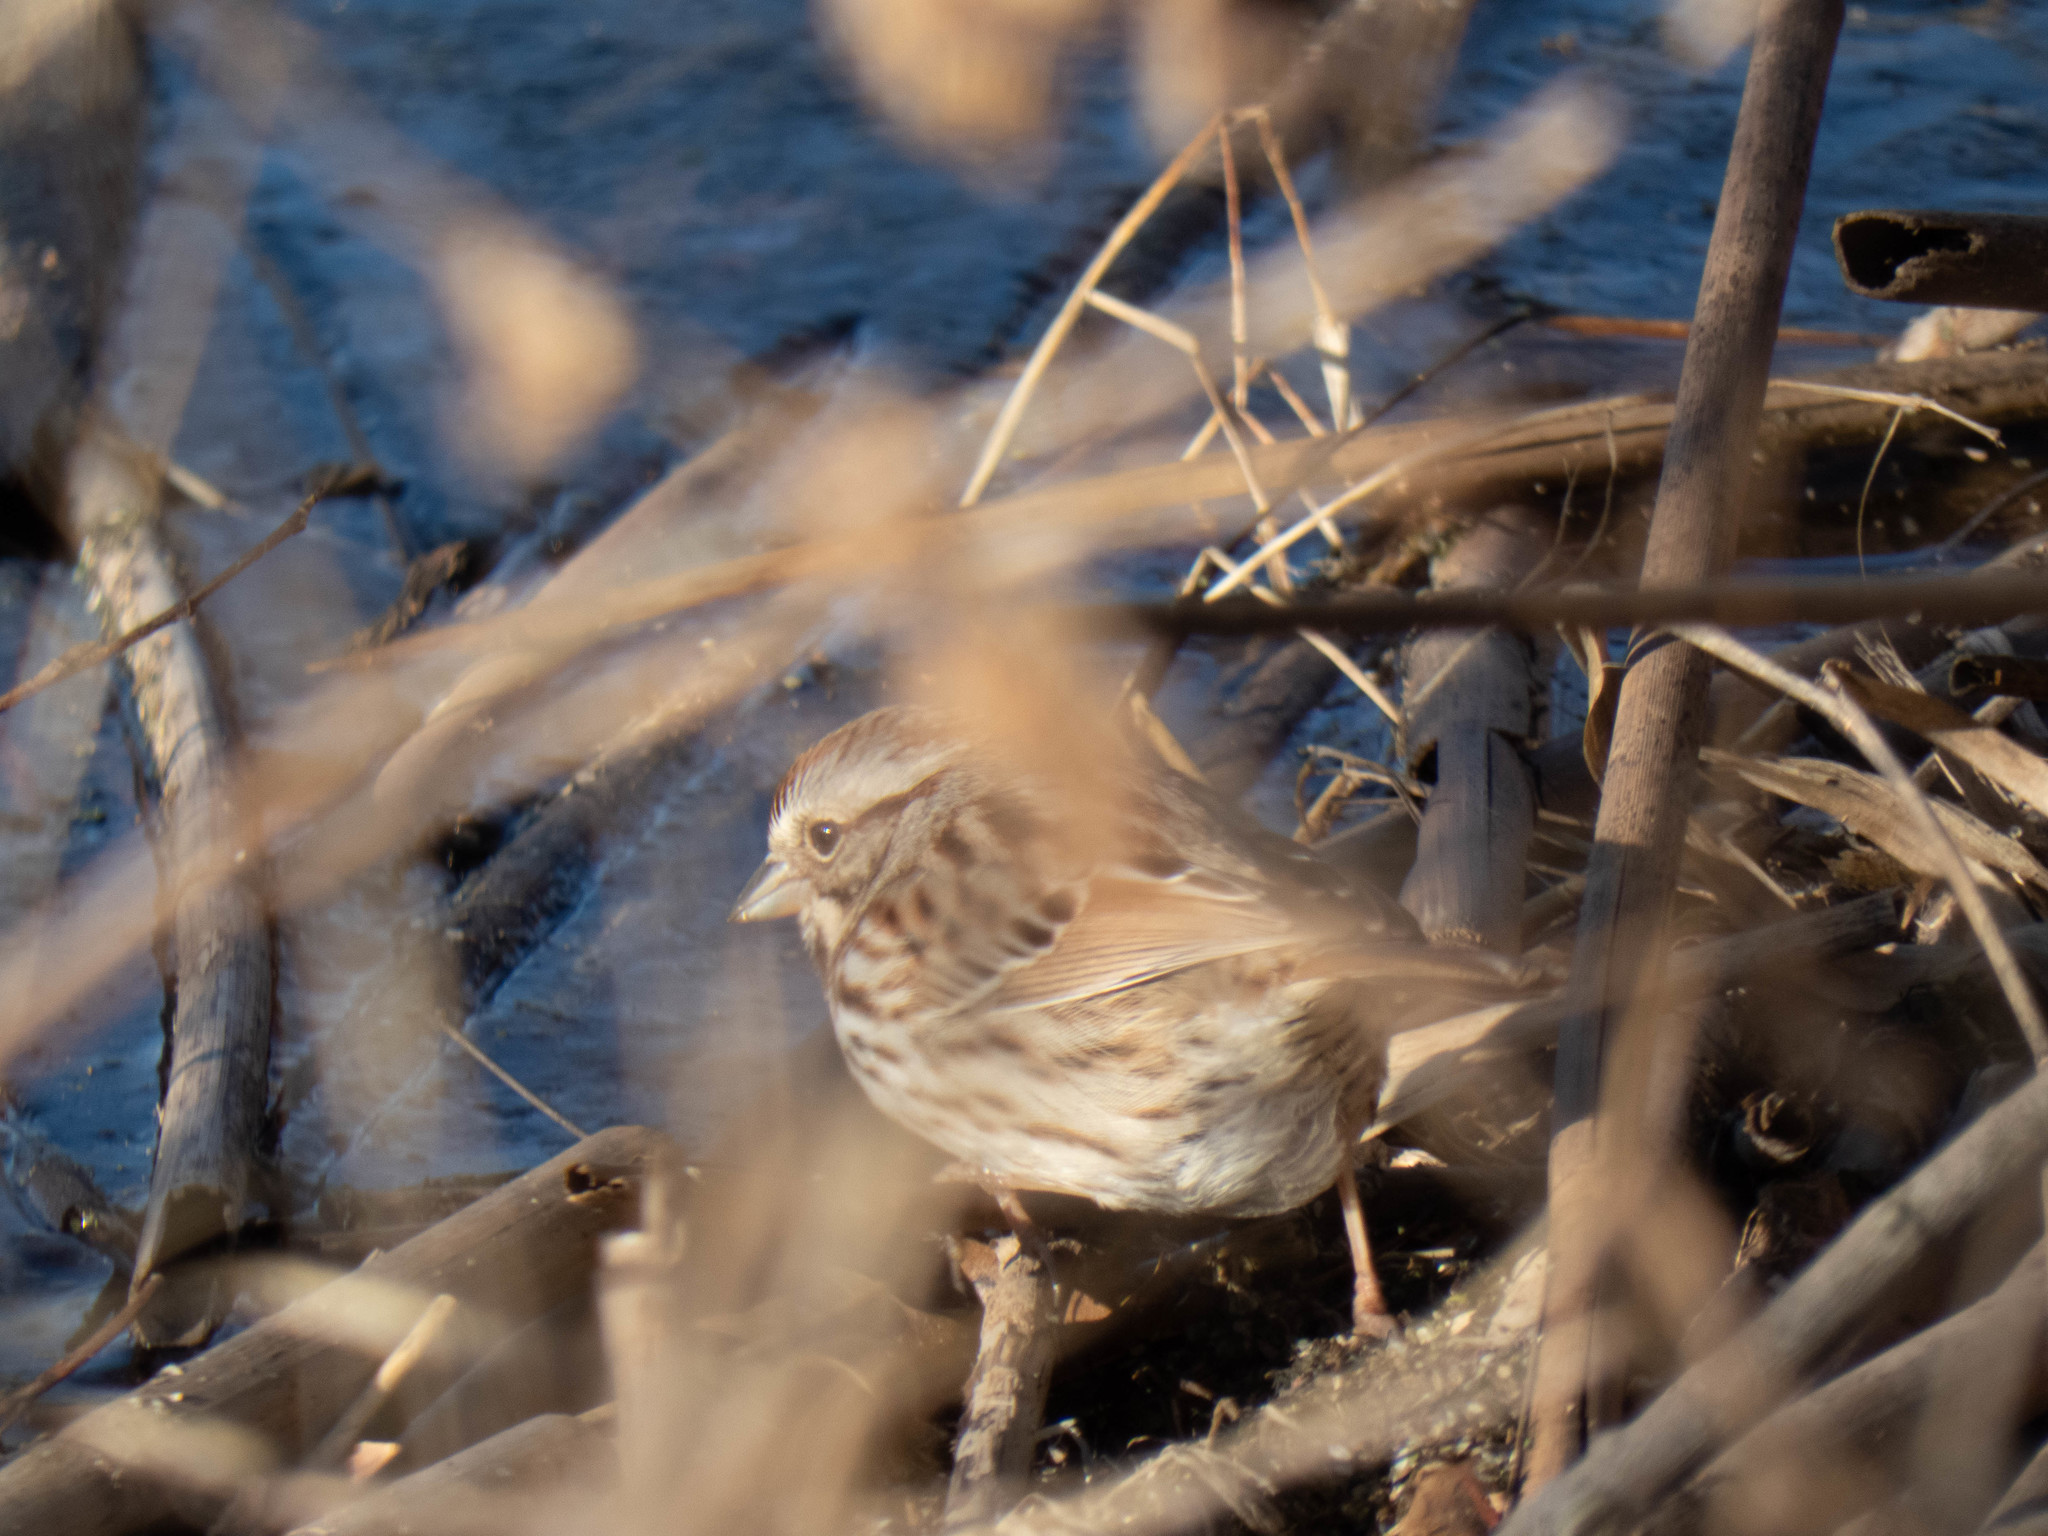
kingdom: Animalia
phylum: Chordata
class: Aves
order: Passeriformes
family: Passerellidae
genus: Melospiza
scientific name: Melospiza melodia
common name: Song sparrow
